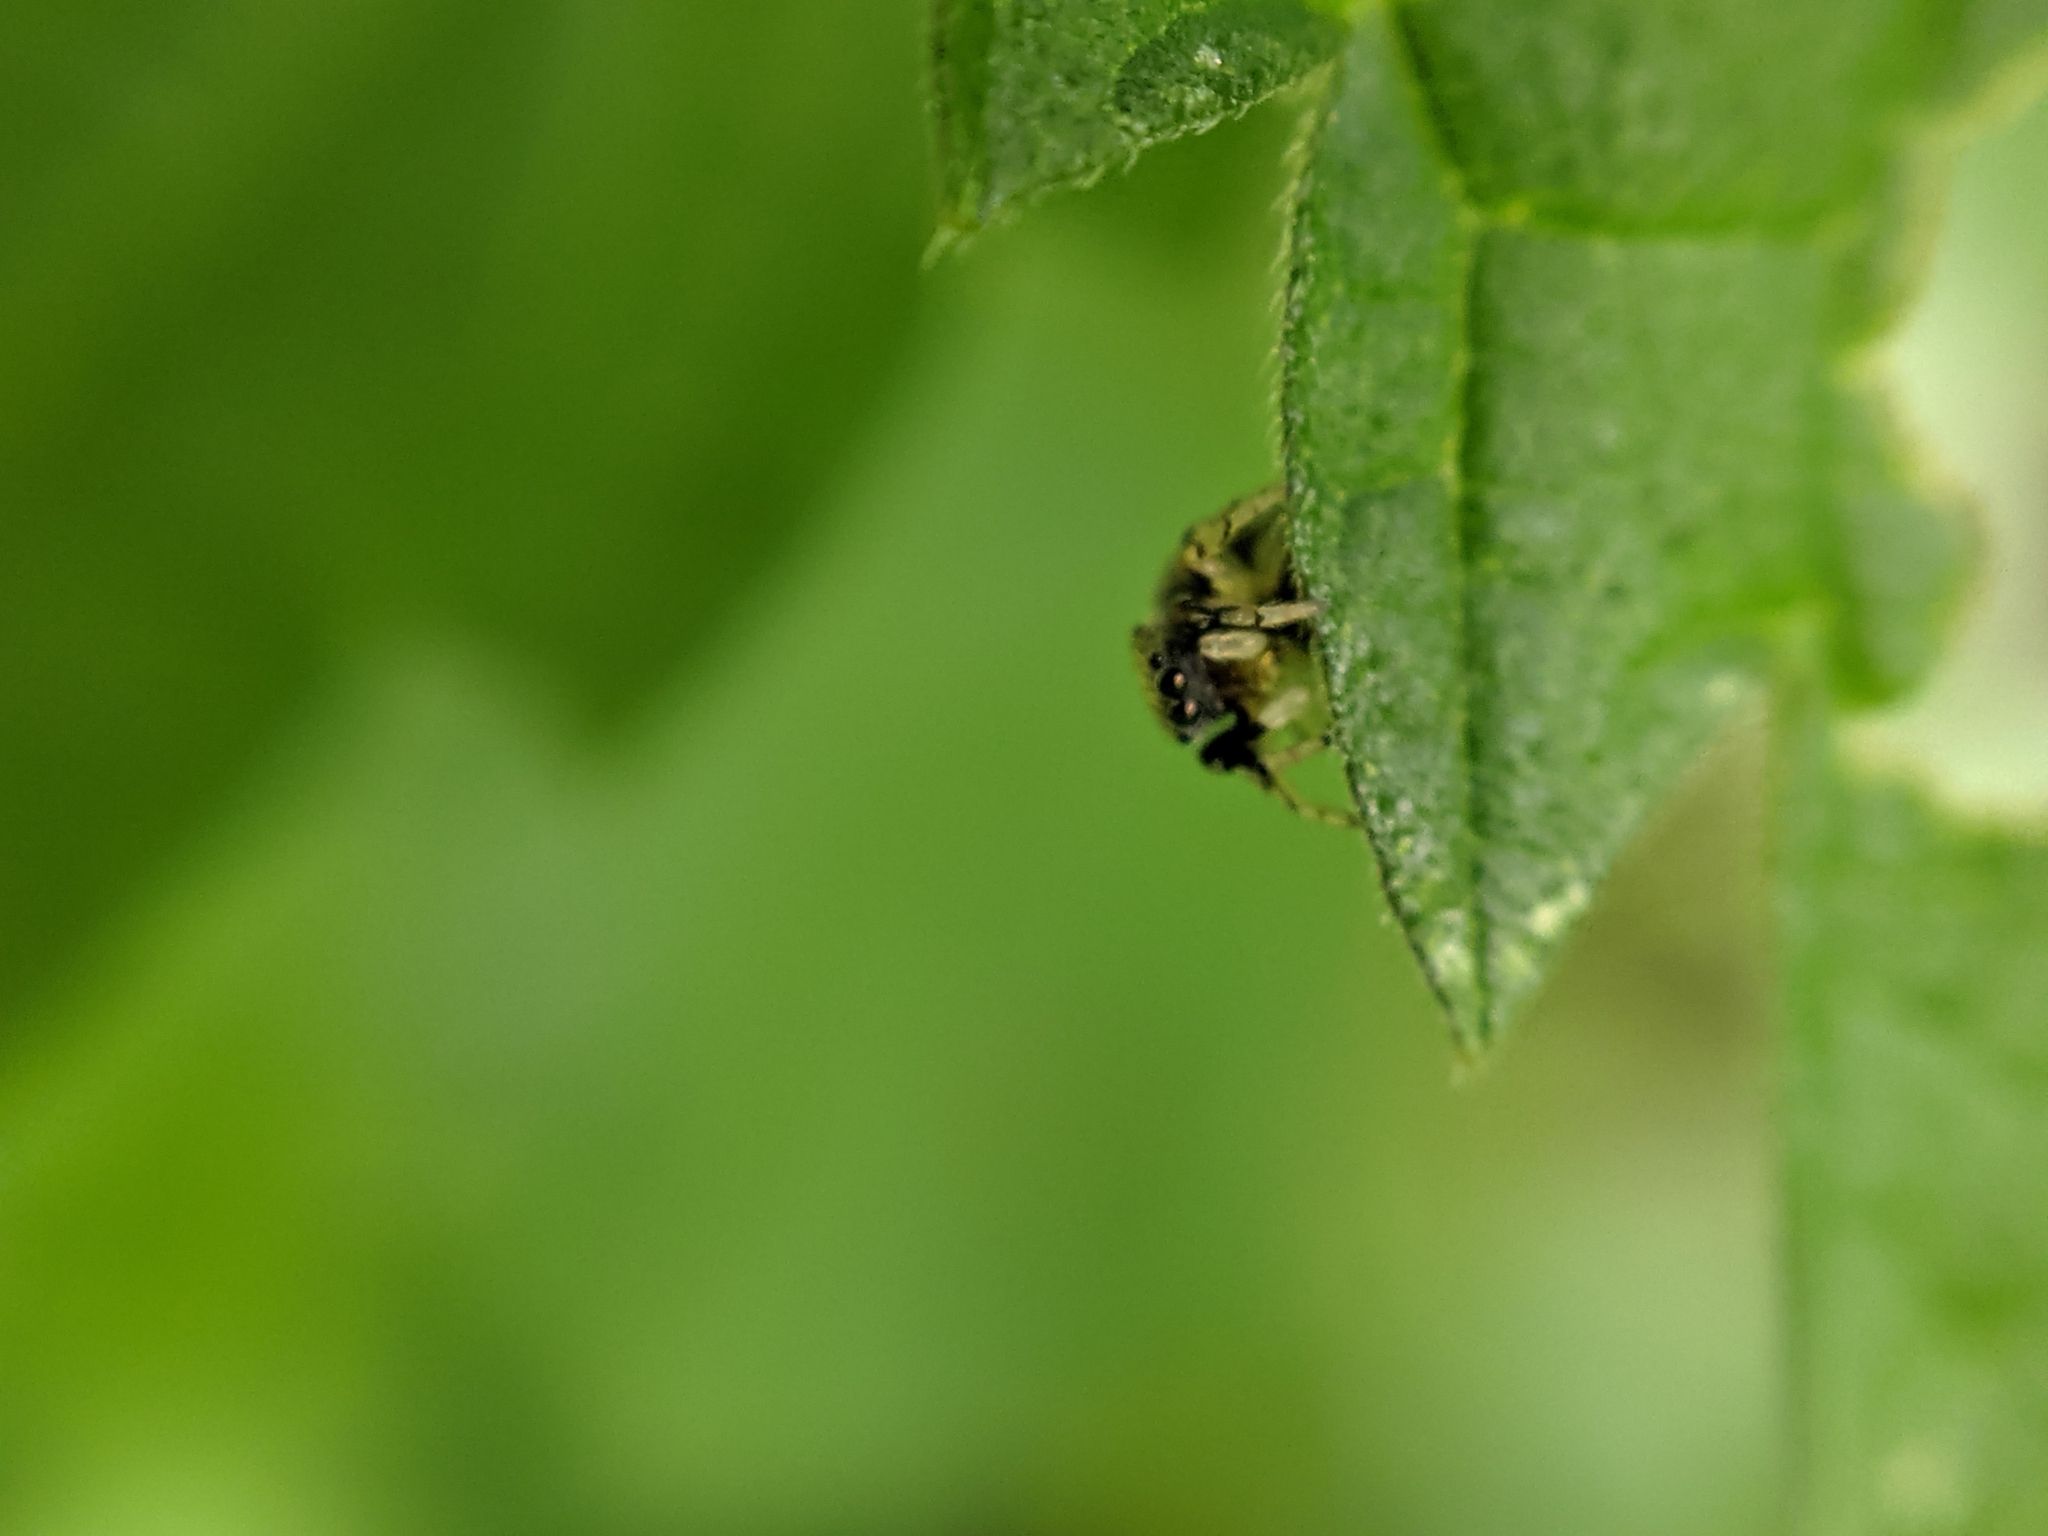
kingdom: Animalia
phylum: Arthropoda
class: Arachnida
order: Araneae
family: Salticidae
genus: Ballus
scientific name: Ballus chalybeius
